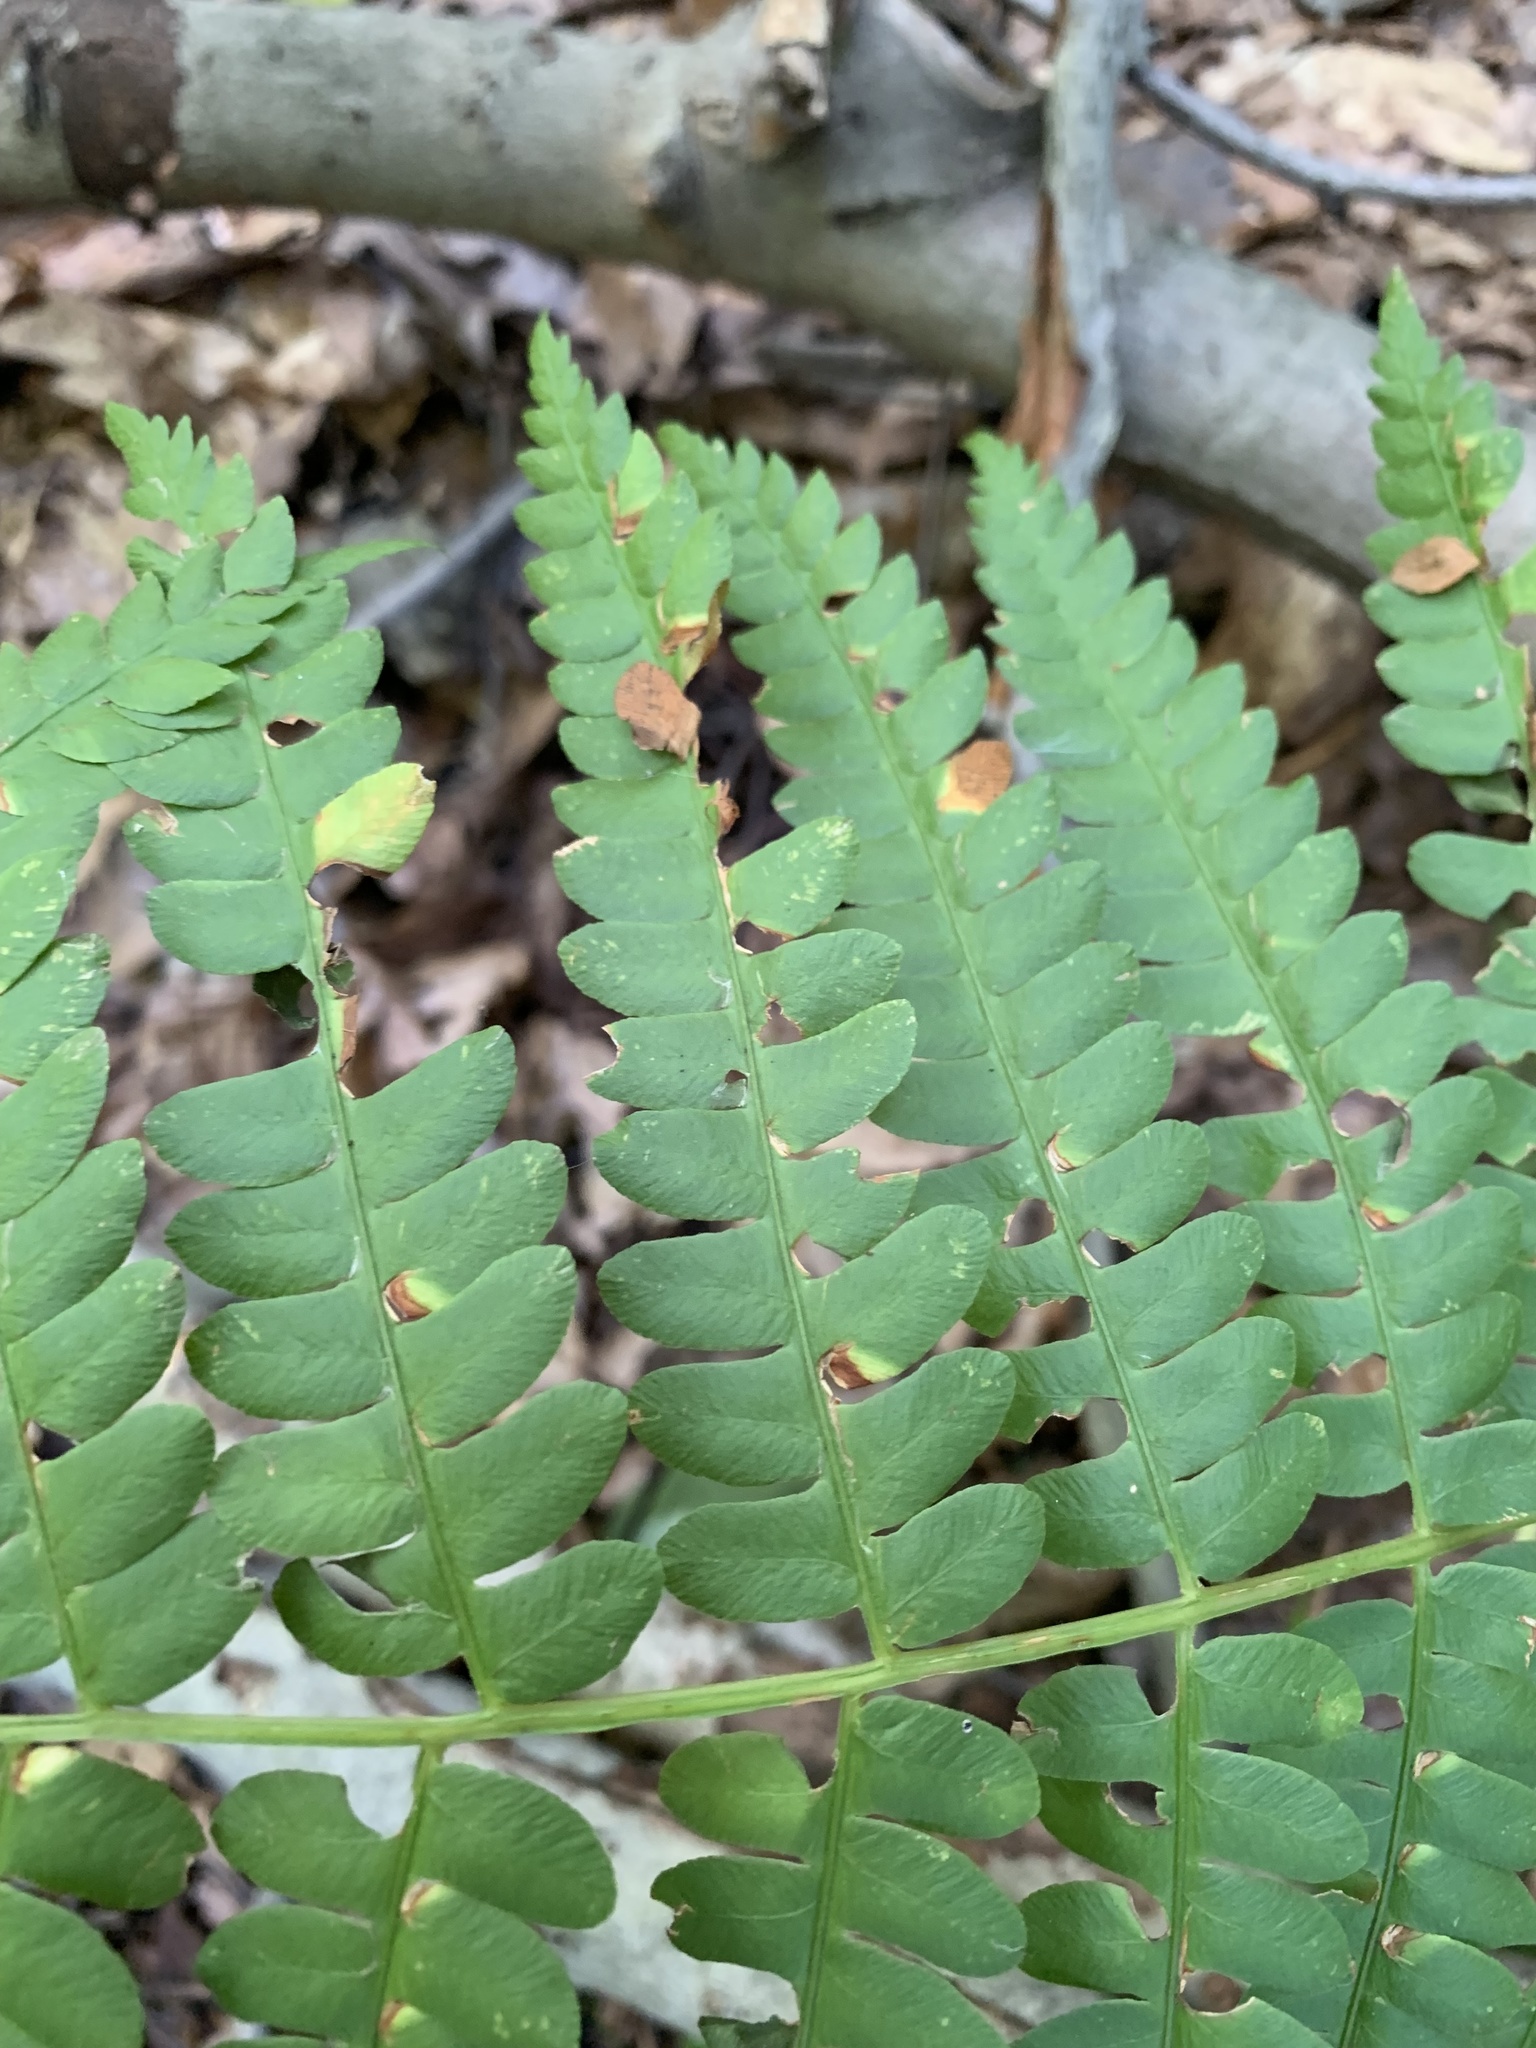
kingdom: Plantae
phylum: Tracheophyta
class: Polypodiopsida
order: Osmundales
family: Osmundaceae
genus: Claytosmunda
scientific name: Claytosmunda claytoniana
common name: Clayton's fern
